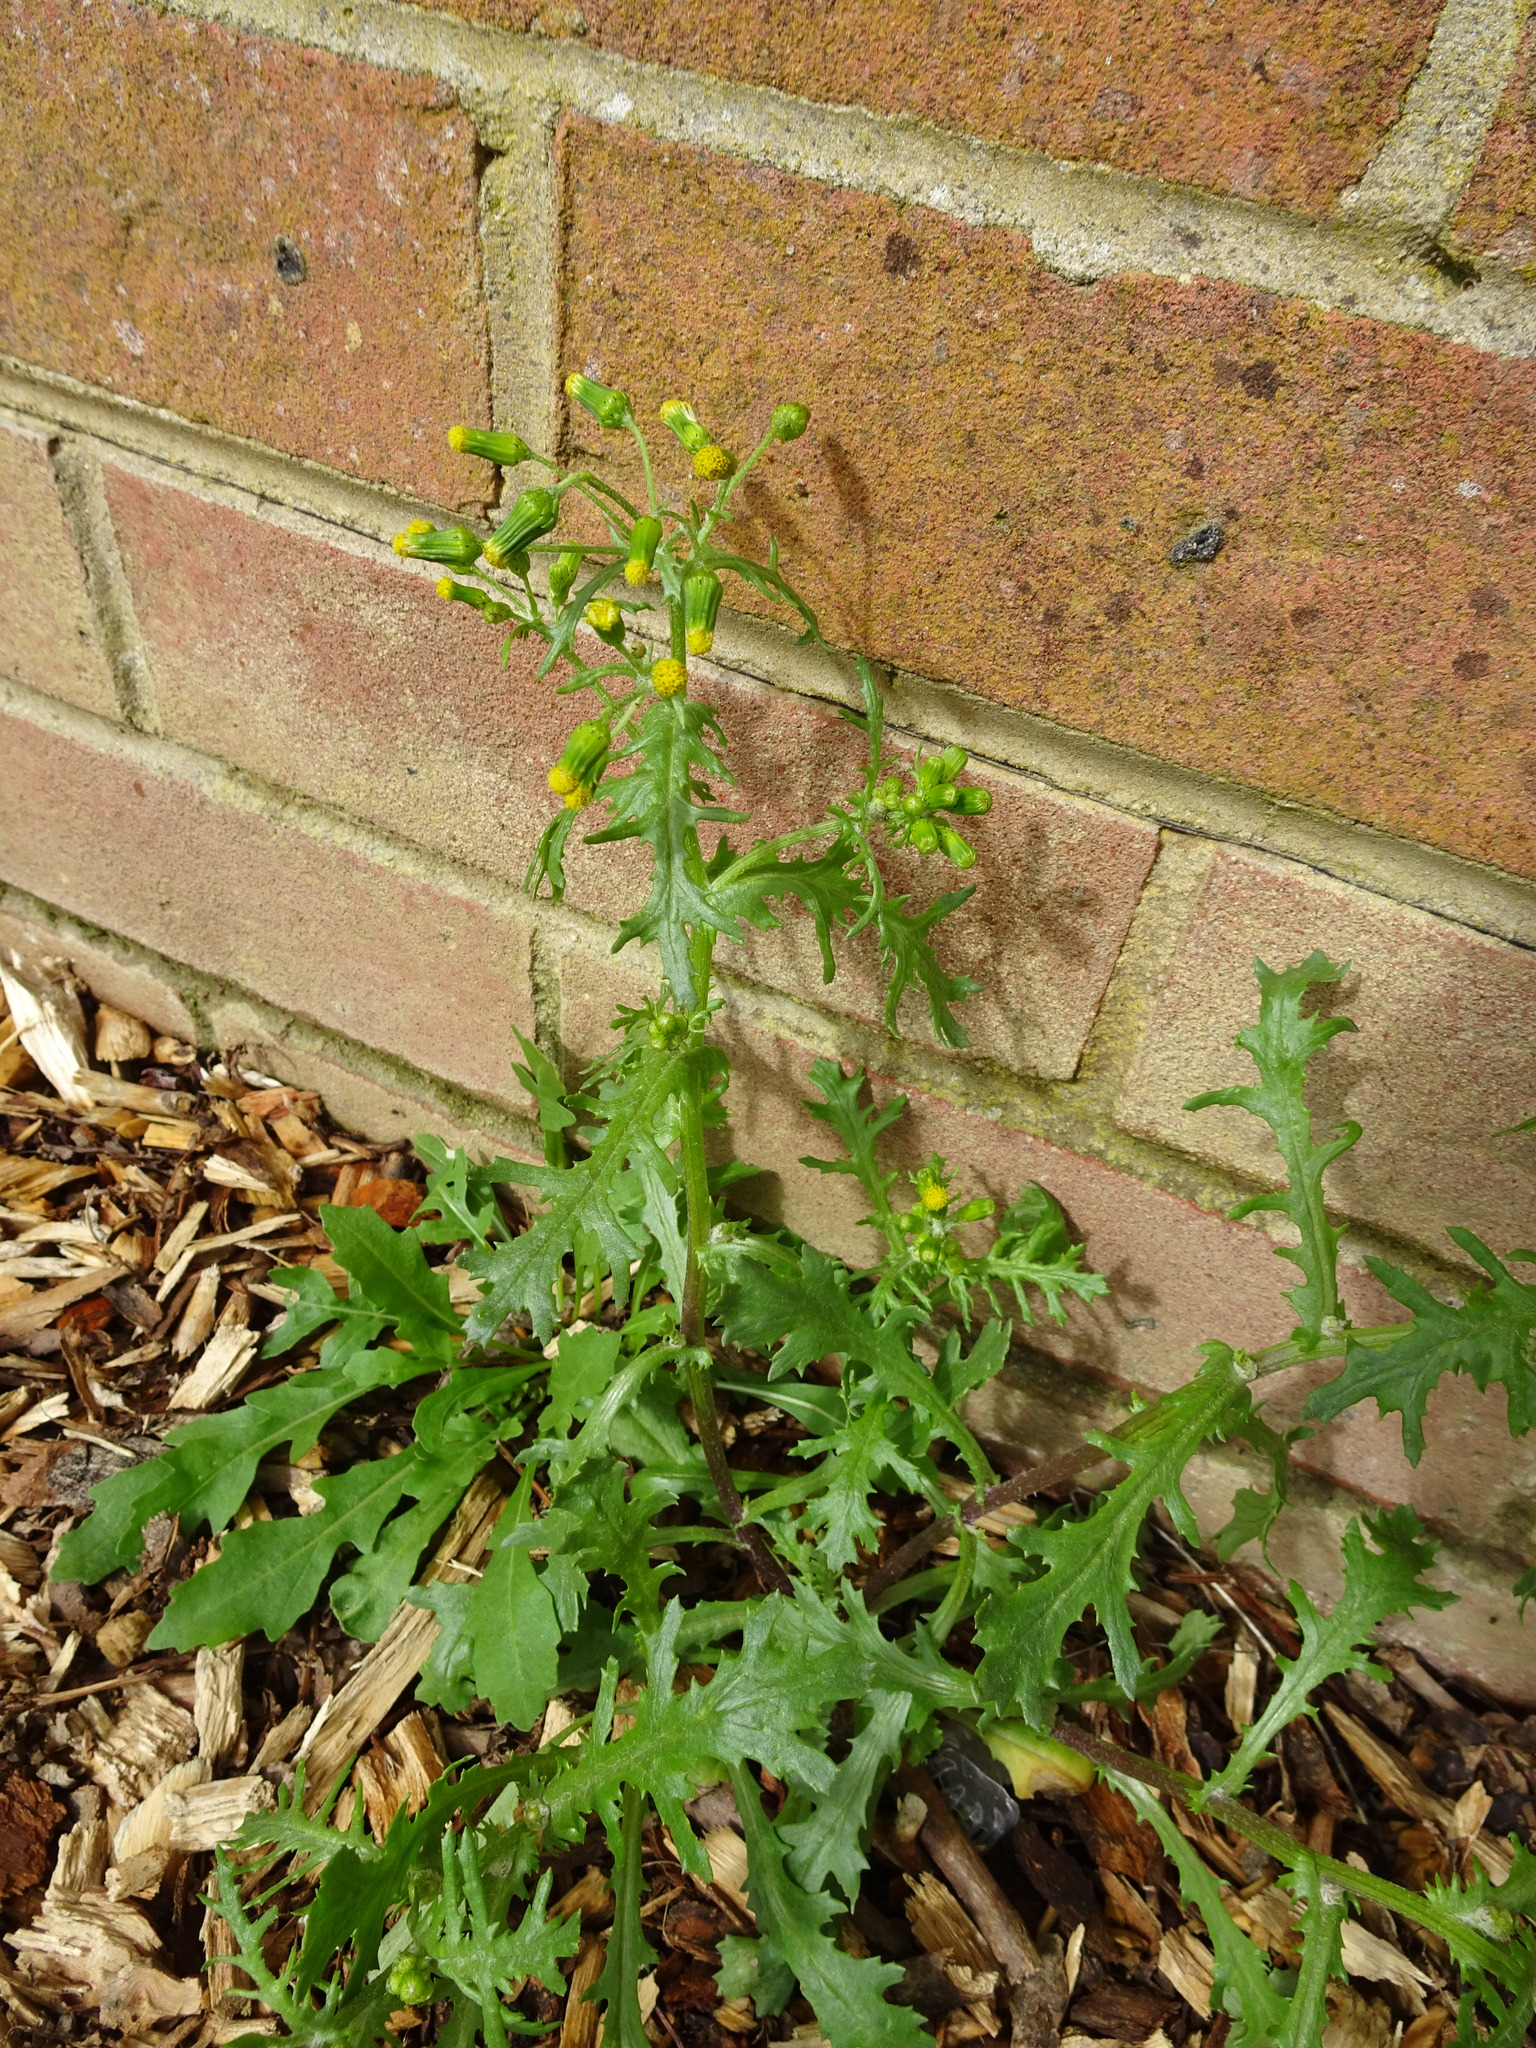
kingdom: Plantae
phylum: Tracheophyta
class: Magnoliopsida
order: Asterales
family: Asteraceae
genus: Senecio
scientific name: Senecio vulgaris
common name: Old-man-in-the-spring
